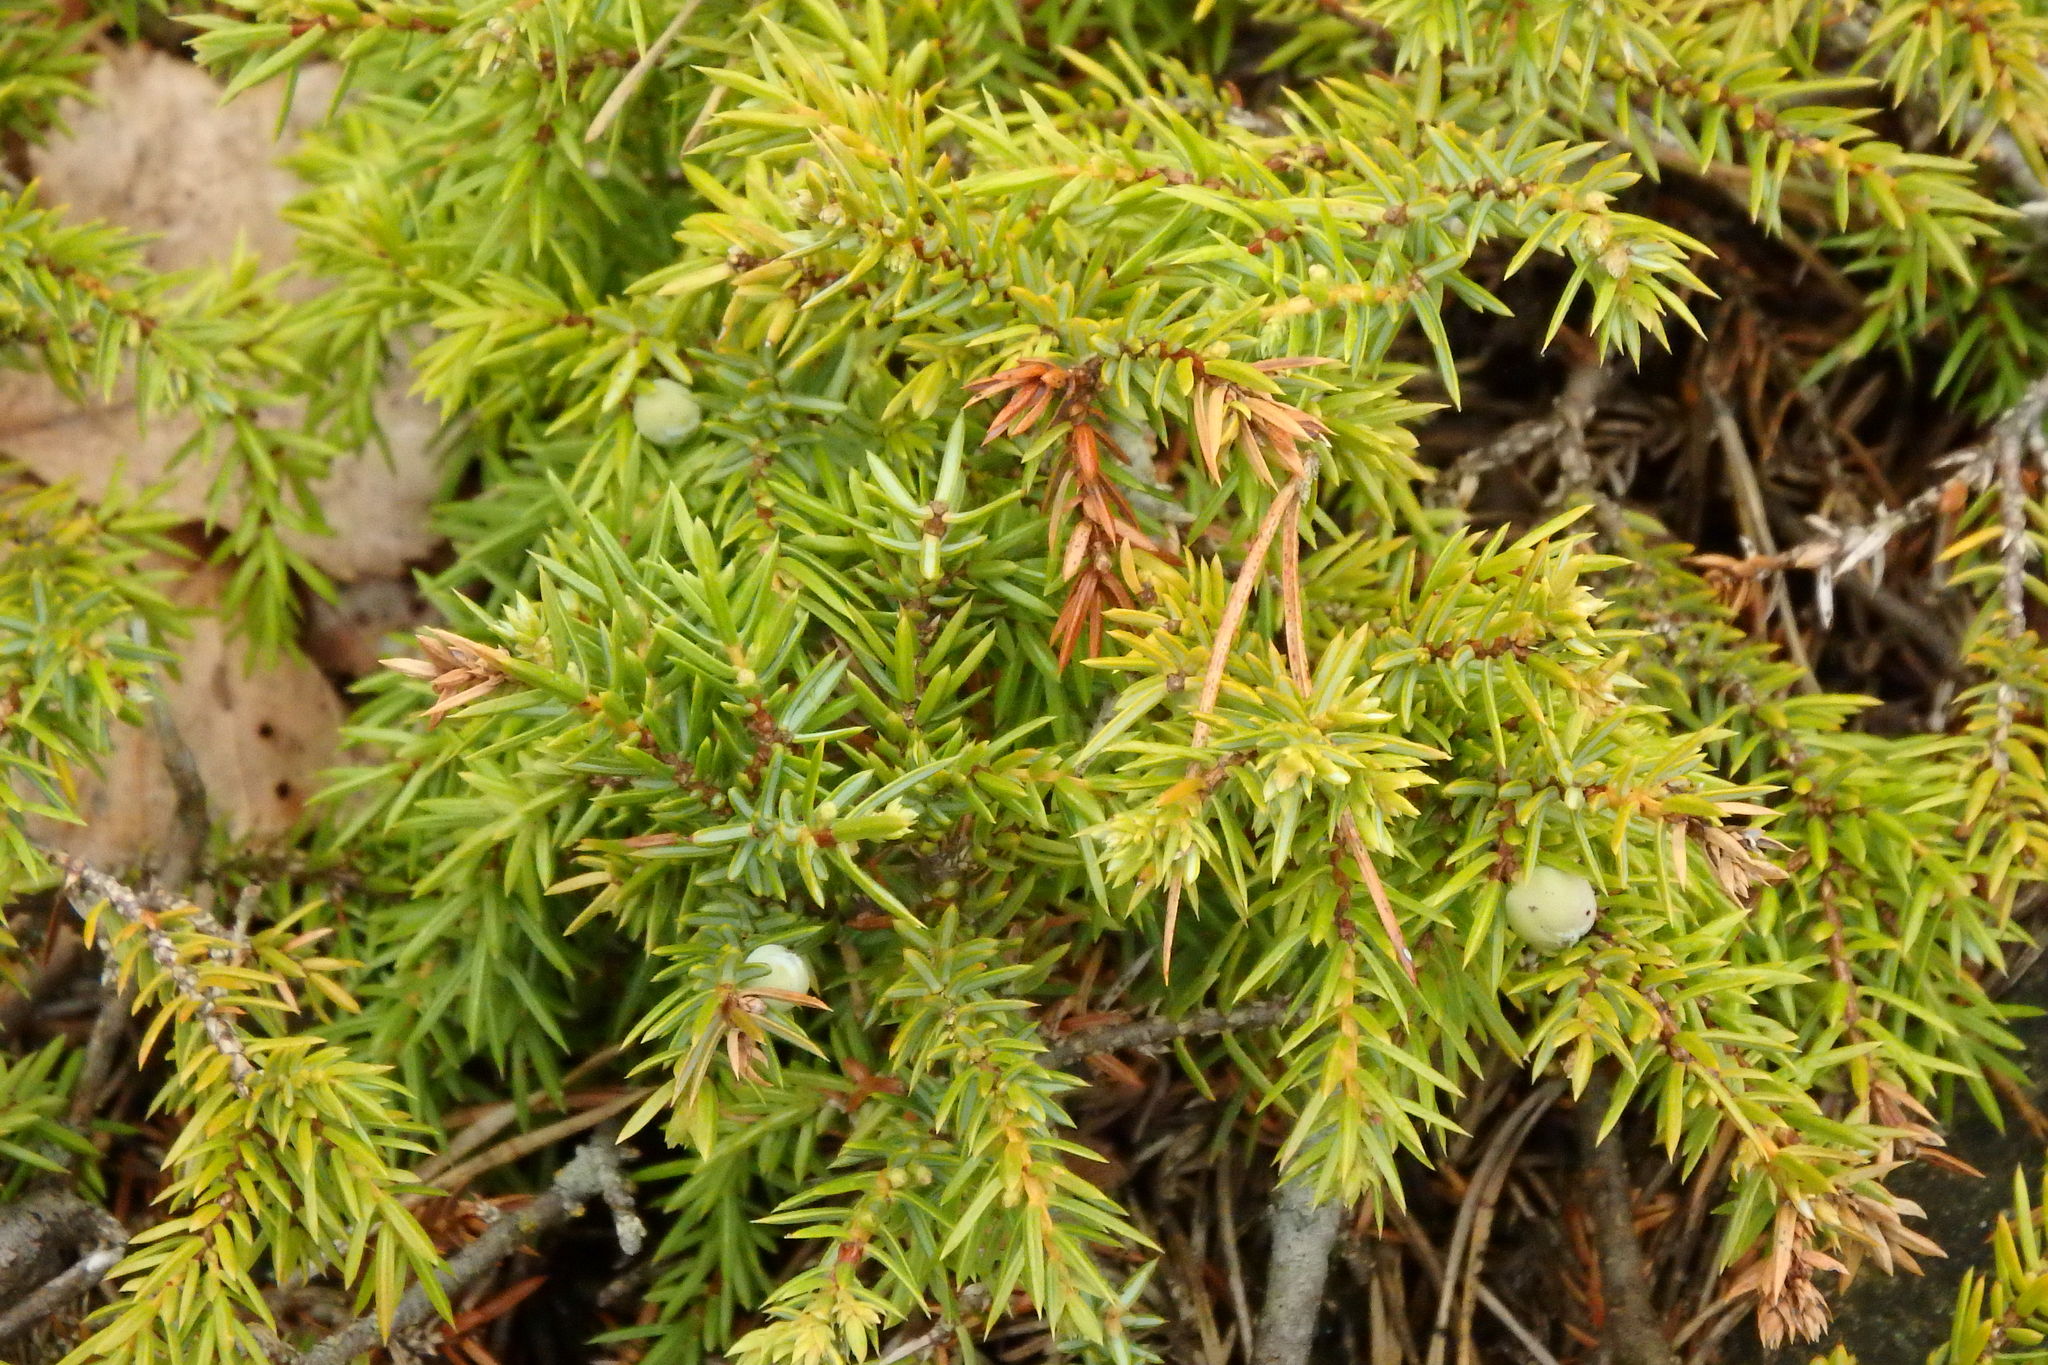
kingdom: Plantae
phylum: Tracheophyta
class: Pinopsida
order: Pinales
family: Cupressaceae
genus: Juniperus
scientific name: Juniperus communis
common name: Common juniper
